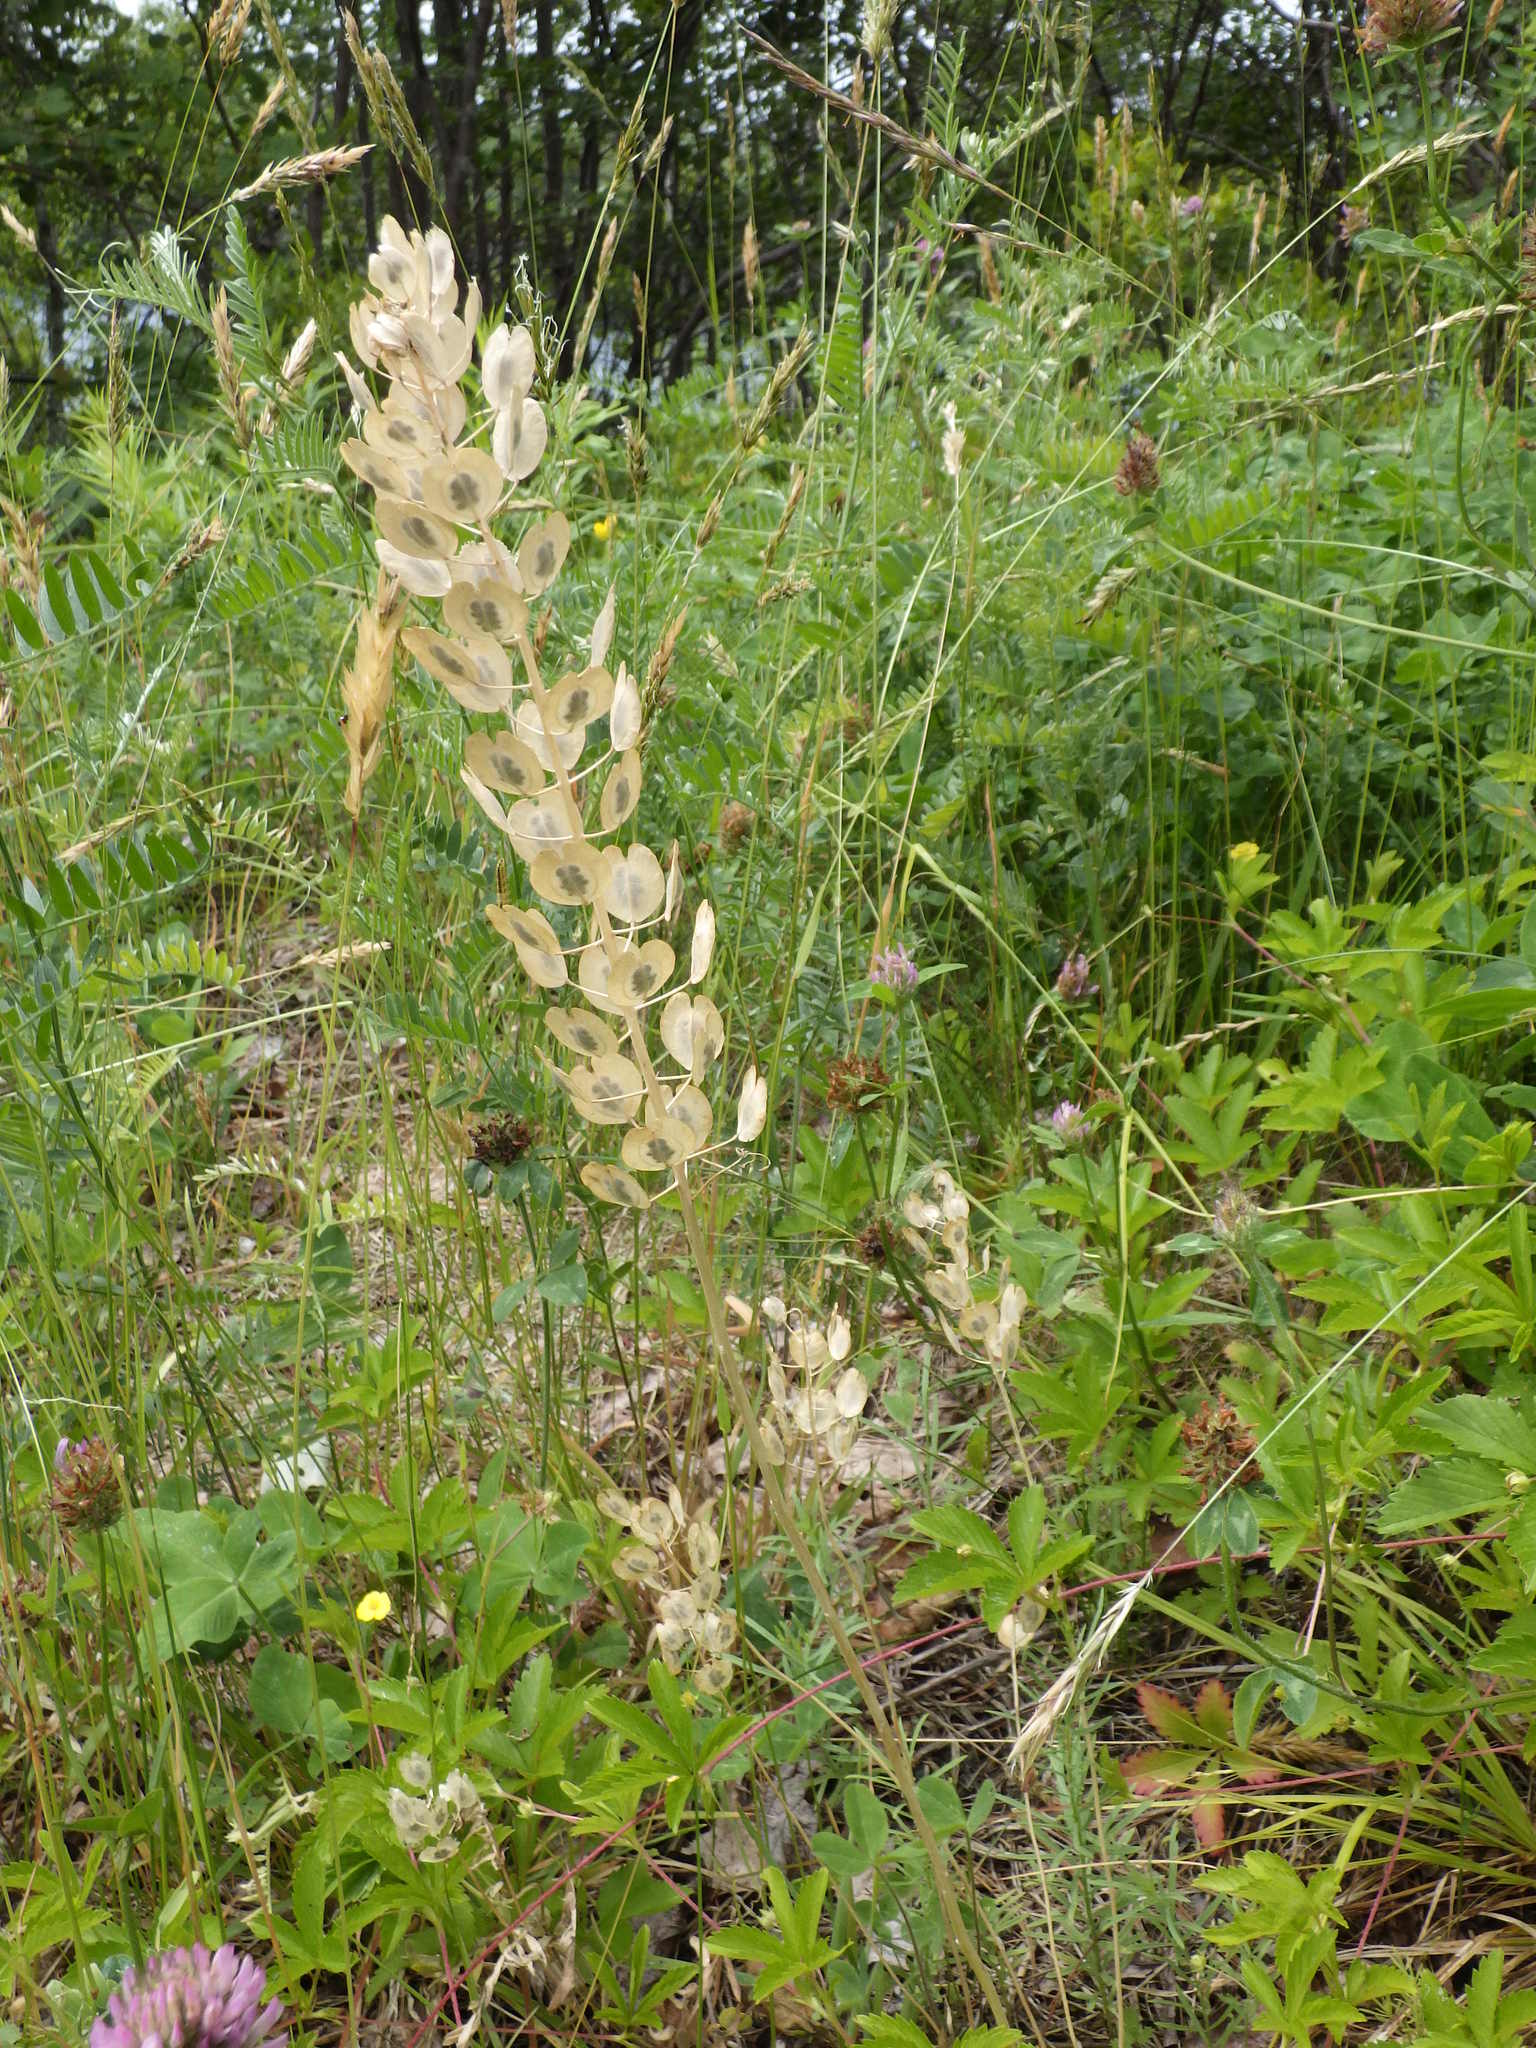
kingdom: Plantae
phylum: Tracheophyta
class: Magnoliopsida
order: Brassicales
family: Brassicaceae
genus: Thlaspi
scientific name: Thlaspi arvense
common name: Field pennycress
